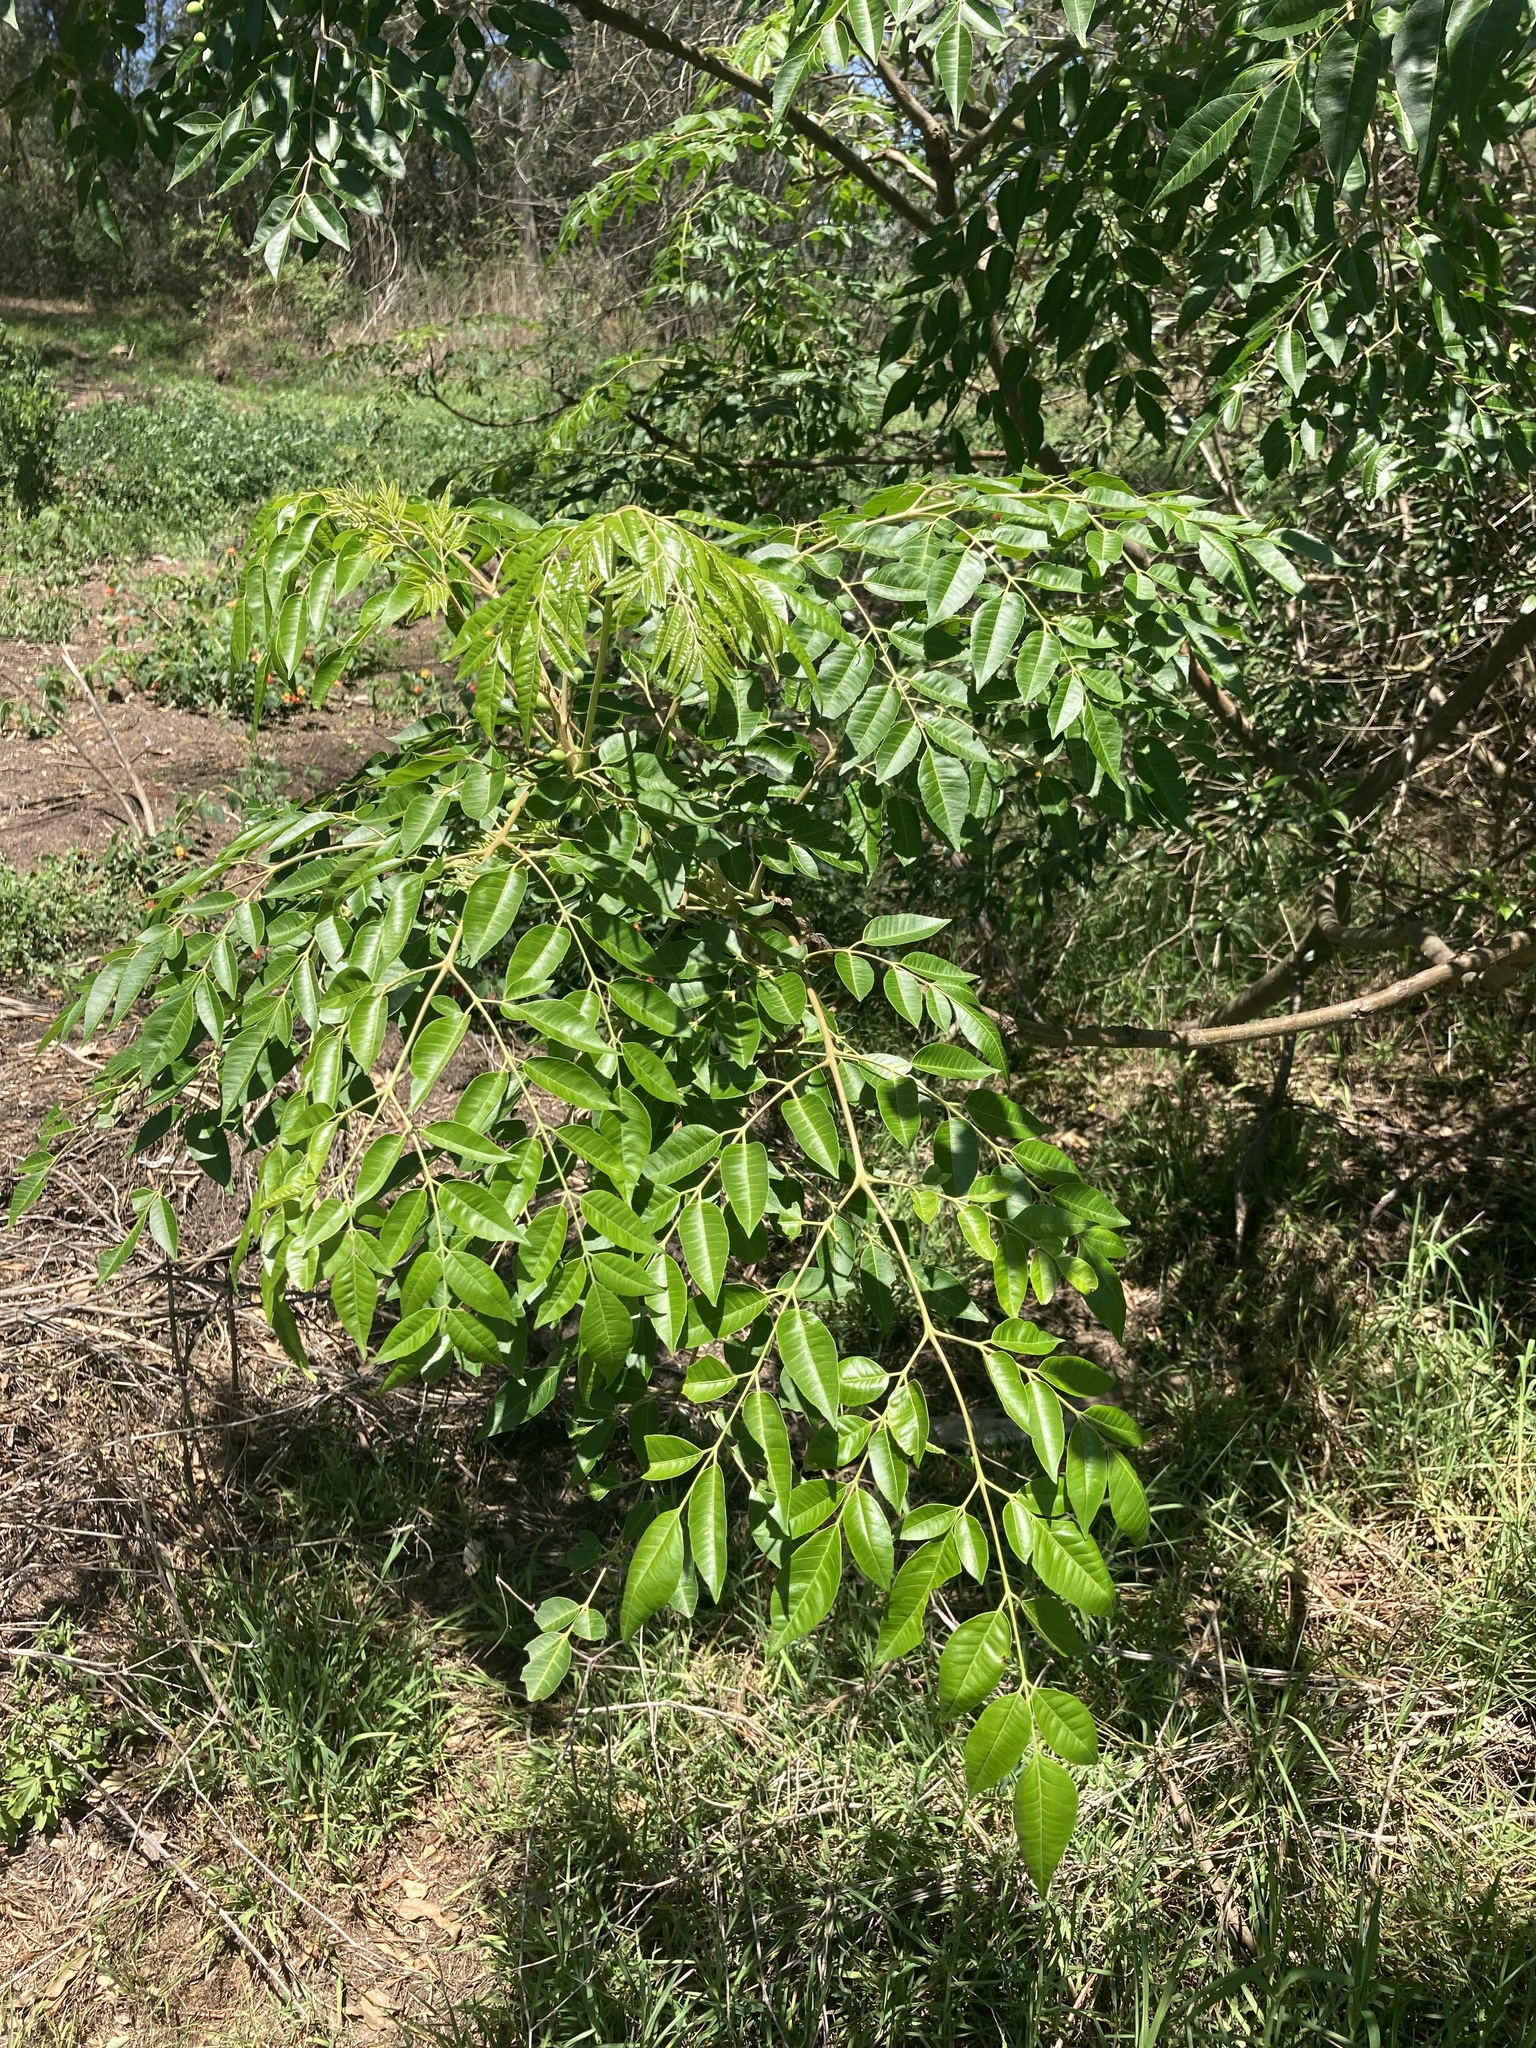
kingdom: Plantae
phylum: Tracheophyta
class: Magnoliopsida
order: Sapindales
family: Meliaceae
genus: Melia
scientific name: Melia azedarach
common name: Chinaberrytree
